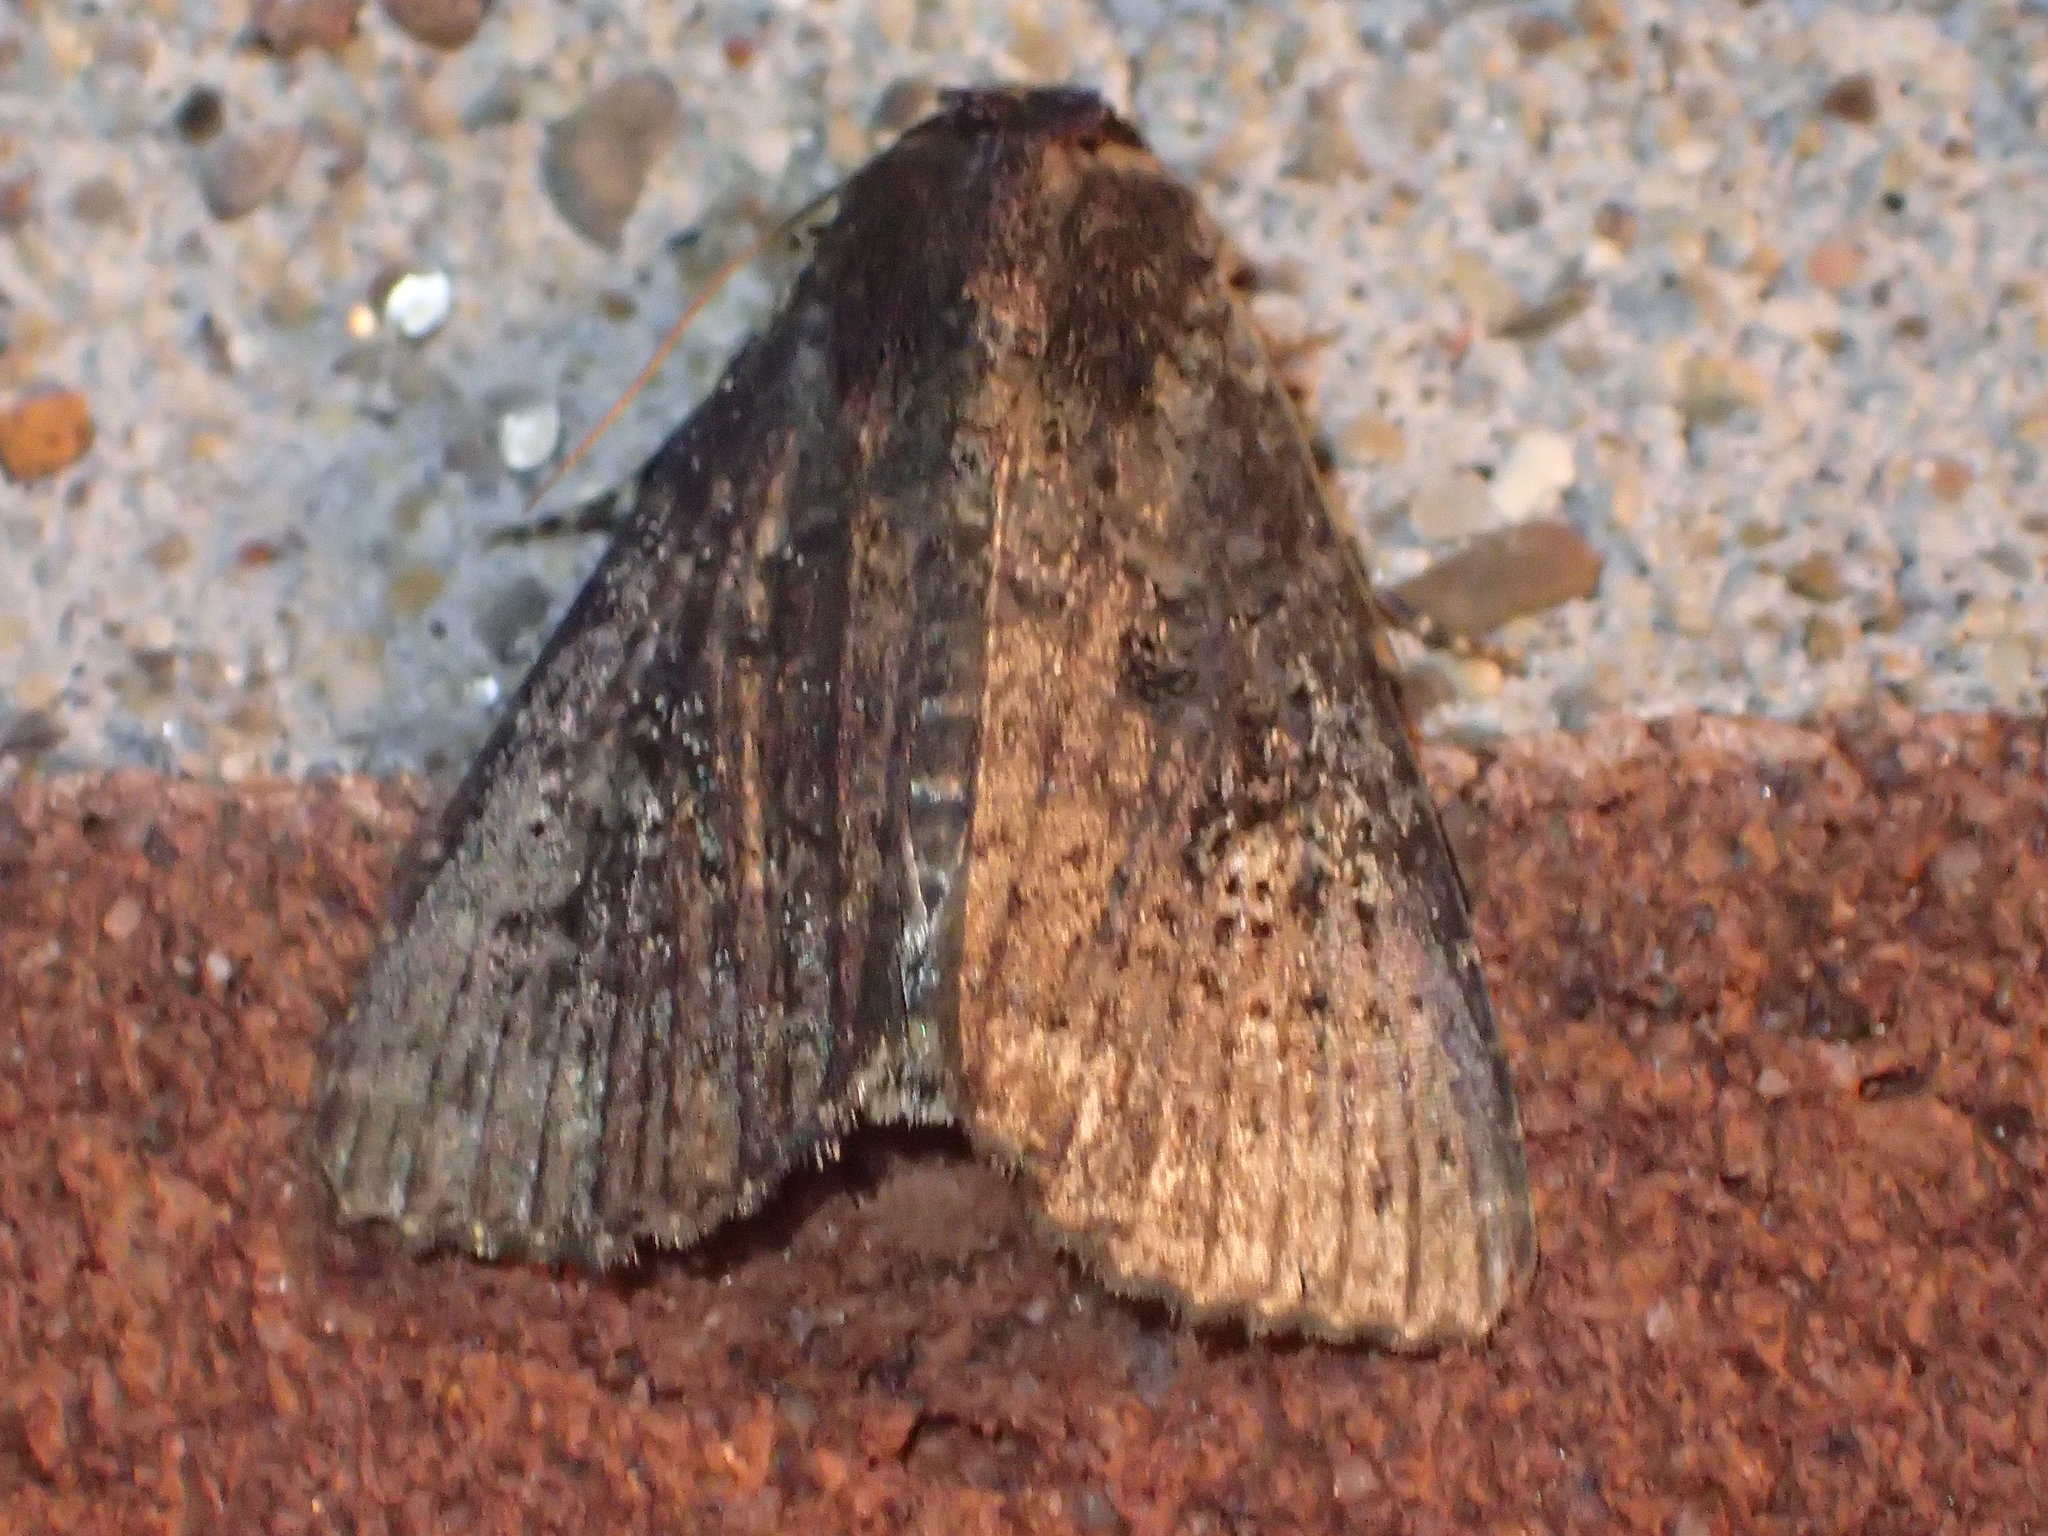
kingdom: Animalia
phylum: Arthropoda
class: Insecta
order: Lepidoptera
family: Noctuidae
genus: Condica
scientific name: Condica vecors
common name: Dusky groundling
